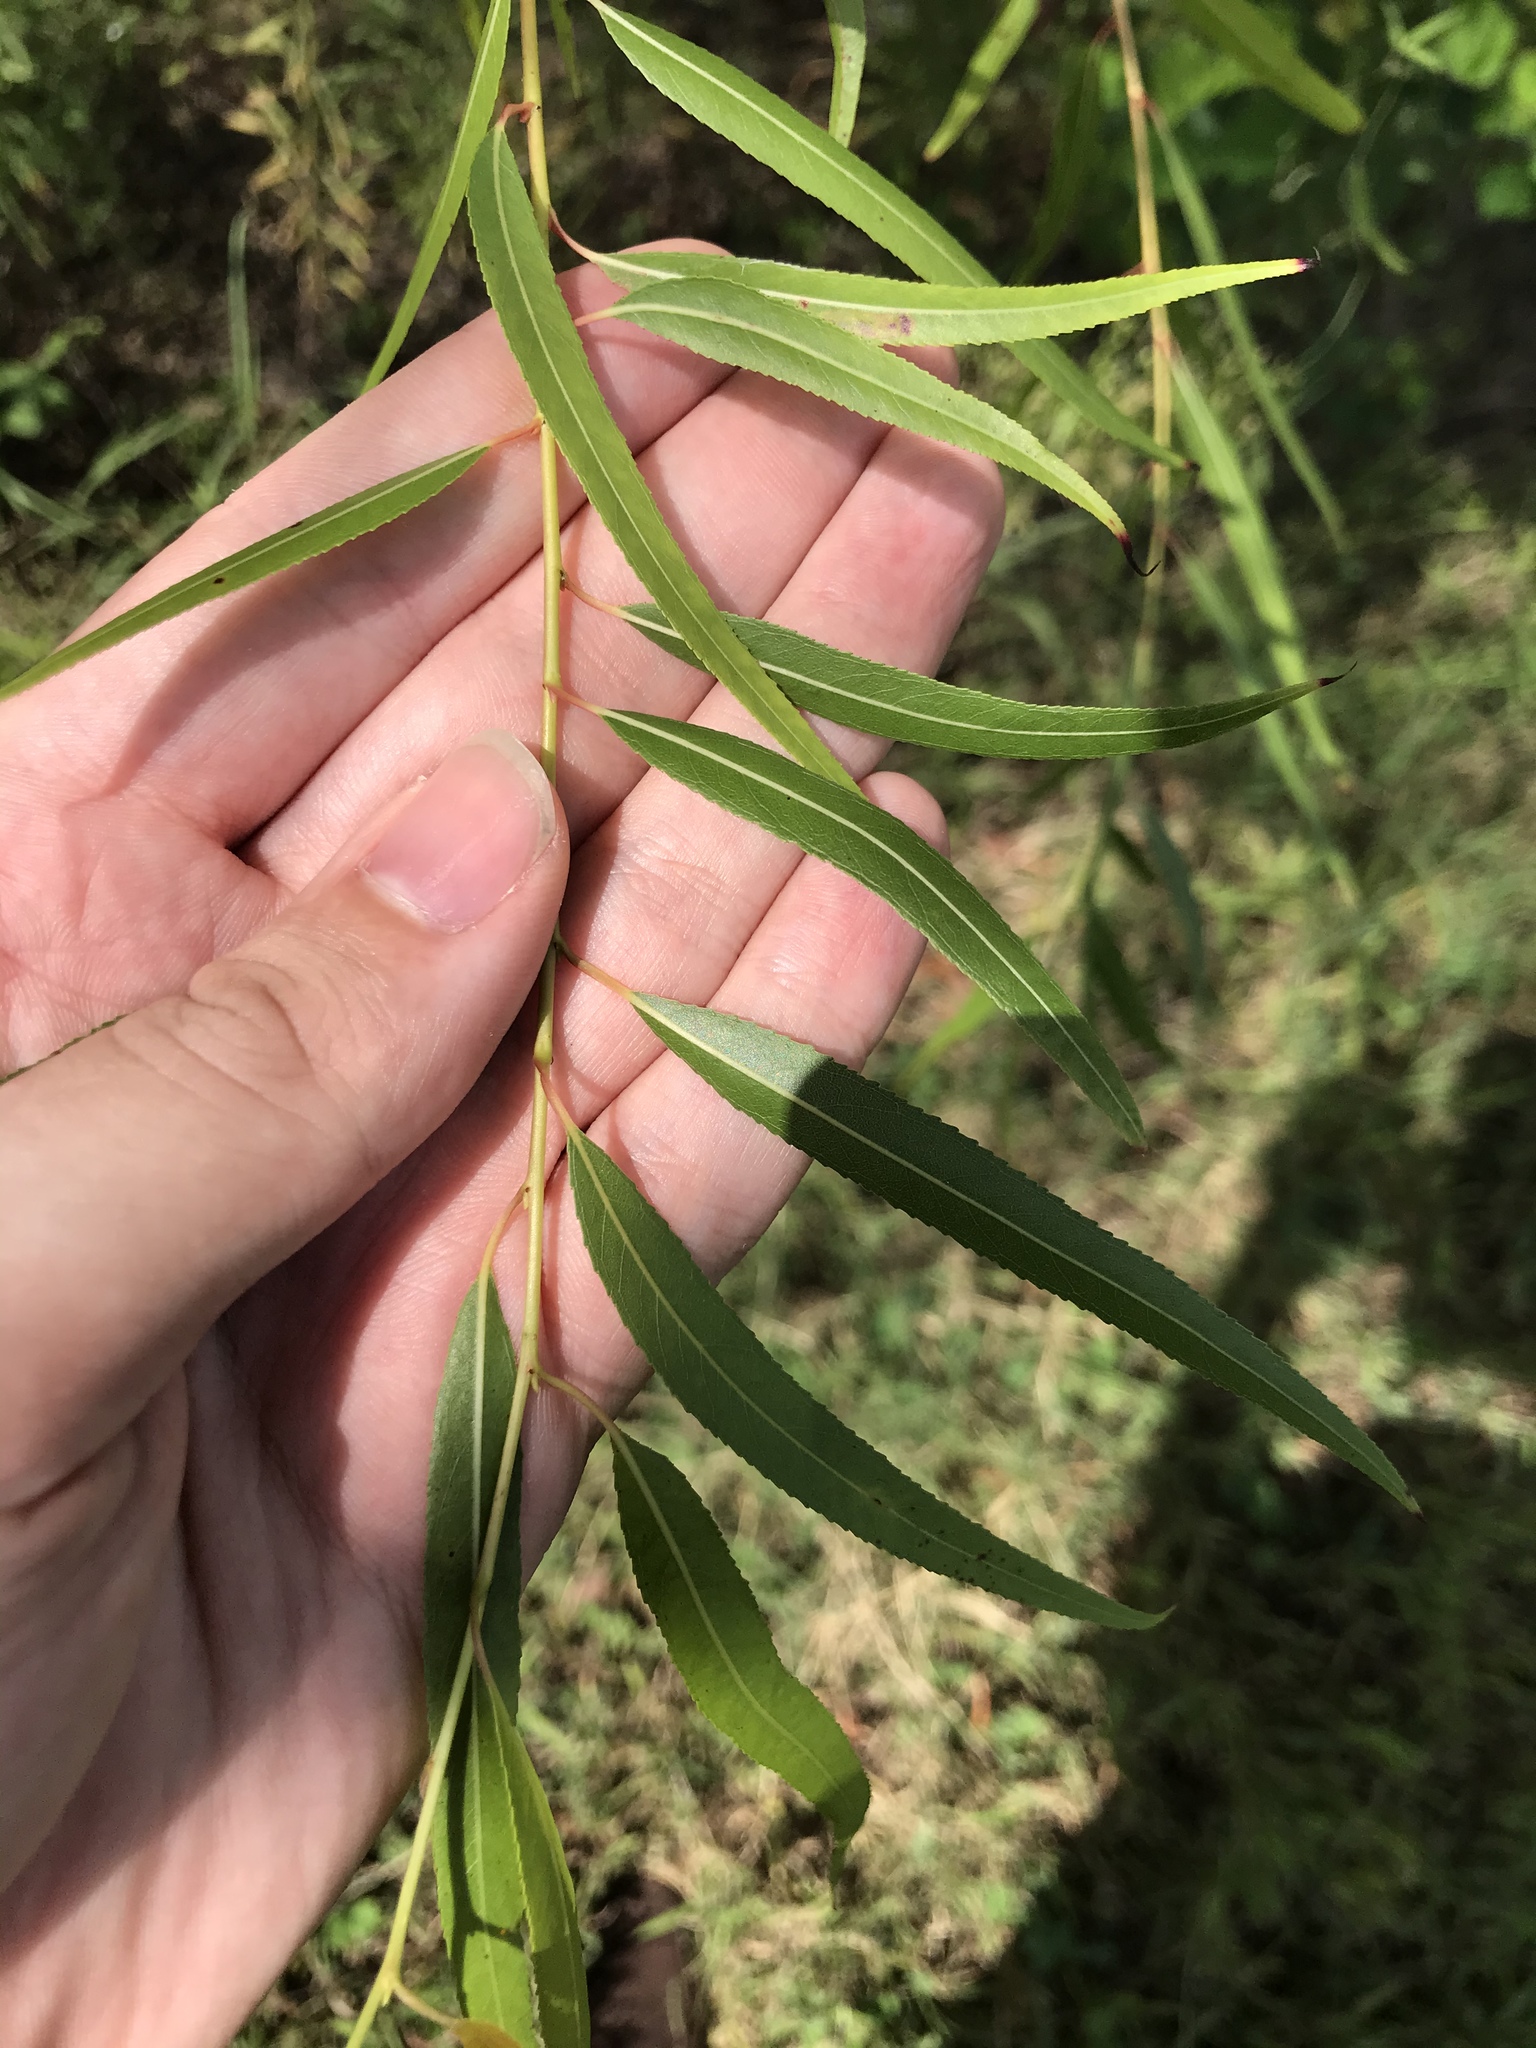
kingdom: Plantae
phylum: Tracheophyta
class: Magnoliopsida
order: Malpighiales
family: Salicaceae
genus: Salix
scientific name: Salix nigra
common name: Black willow
